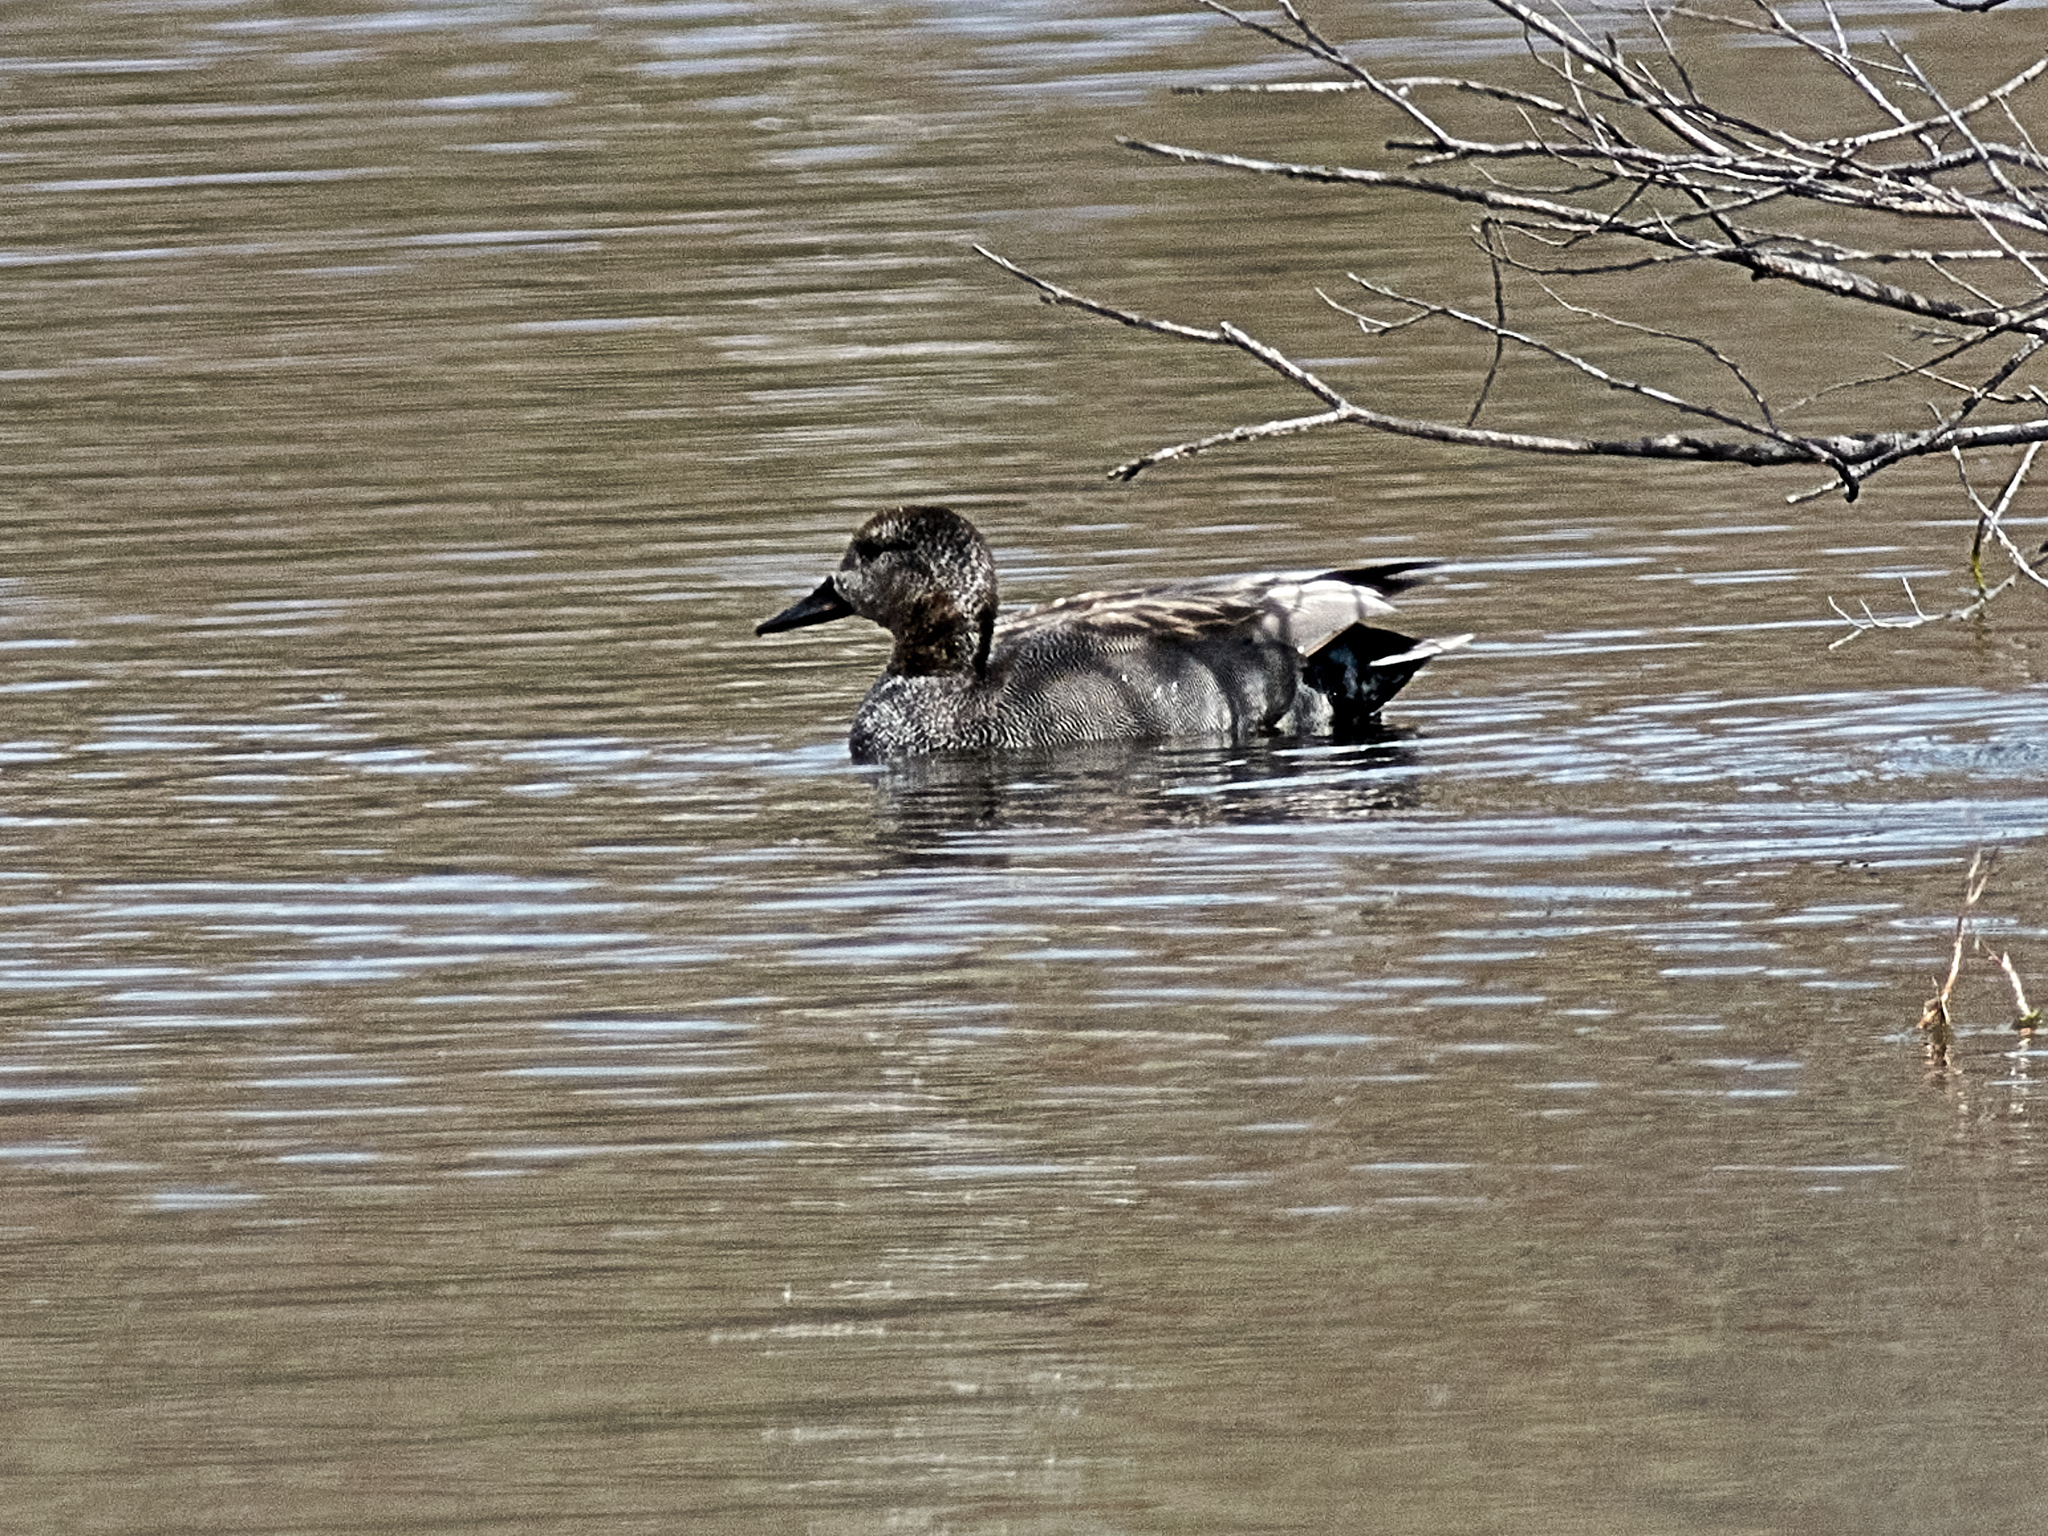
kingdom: Animalia
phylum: Chordata
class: Aves
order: Anseriformes
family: Anatidae
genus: Mareca
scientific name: Mareca strepera
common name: Gadwall
